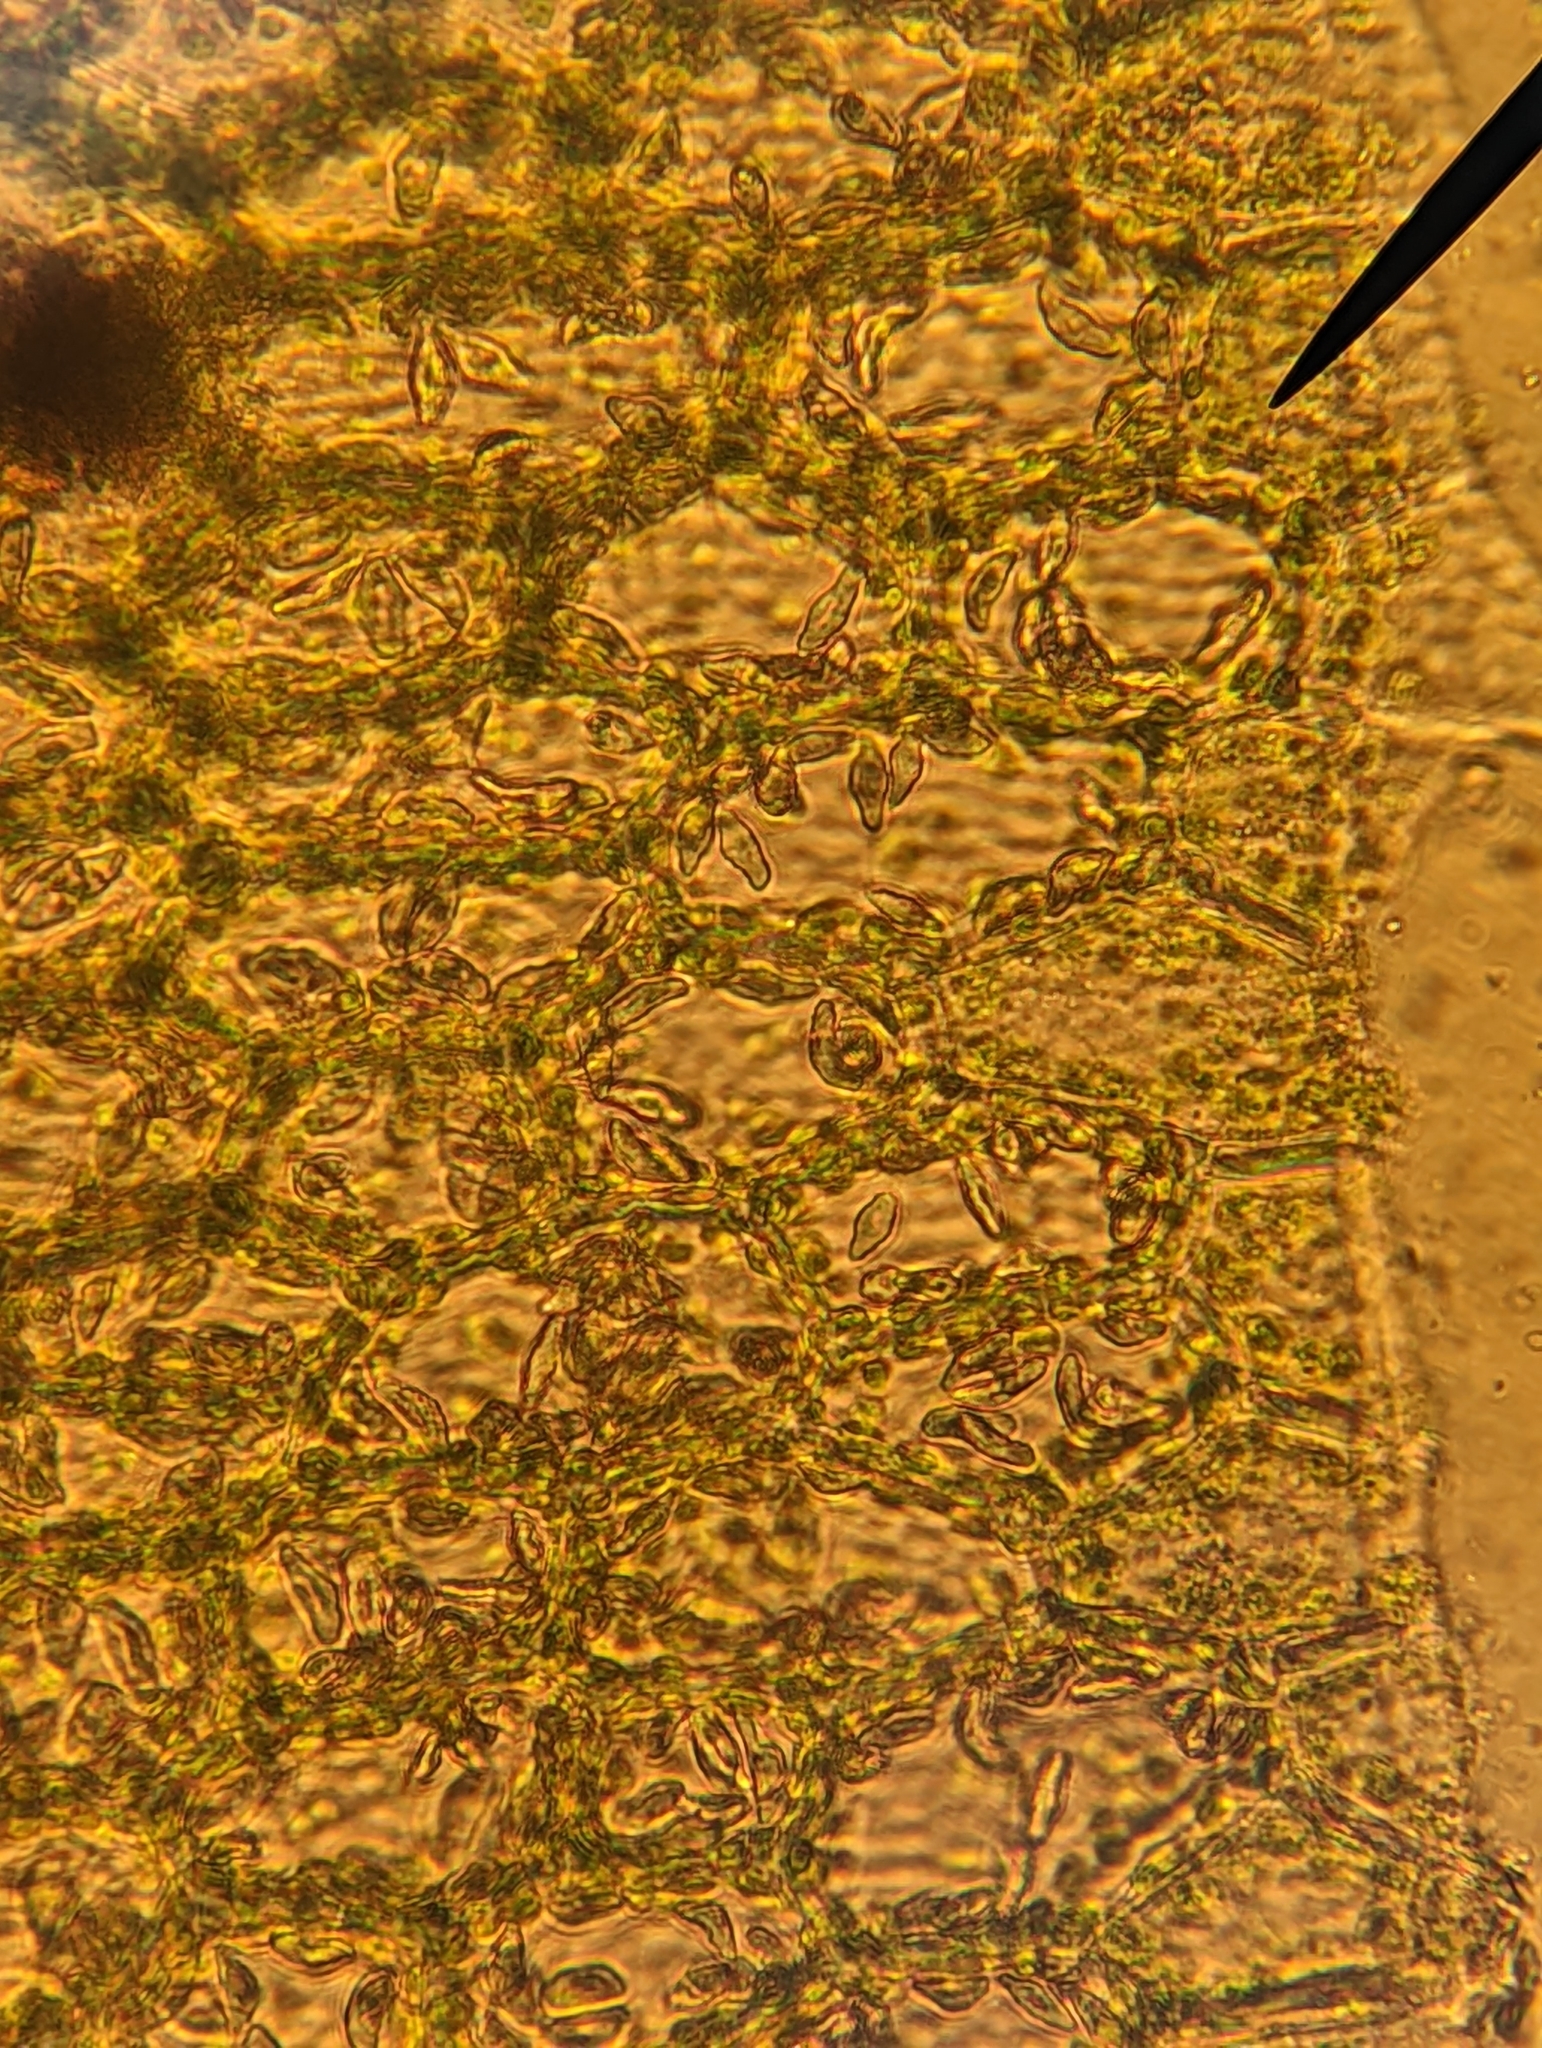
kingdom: Plantae
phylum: Marchantiophyta
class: Jungermanniopsida
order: Jungermanniales
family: Lophocoleaceae
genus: Chiloscyphus
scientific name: Chiloscyphus polyanthos
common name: Square-leaved crestwort
